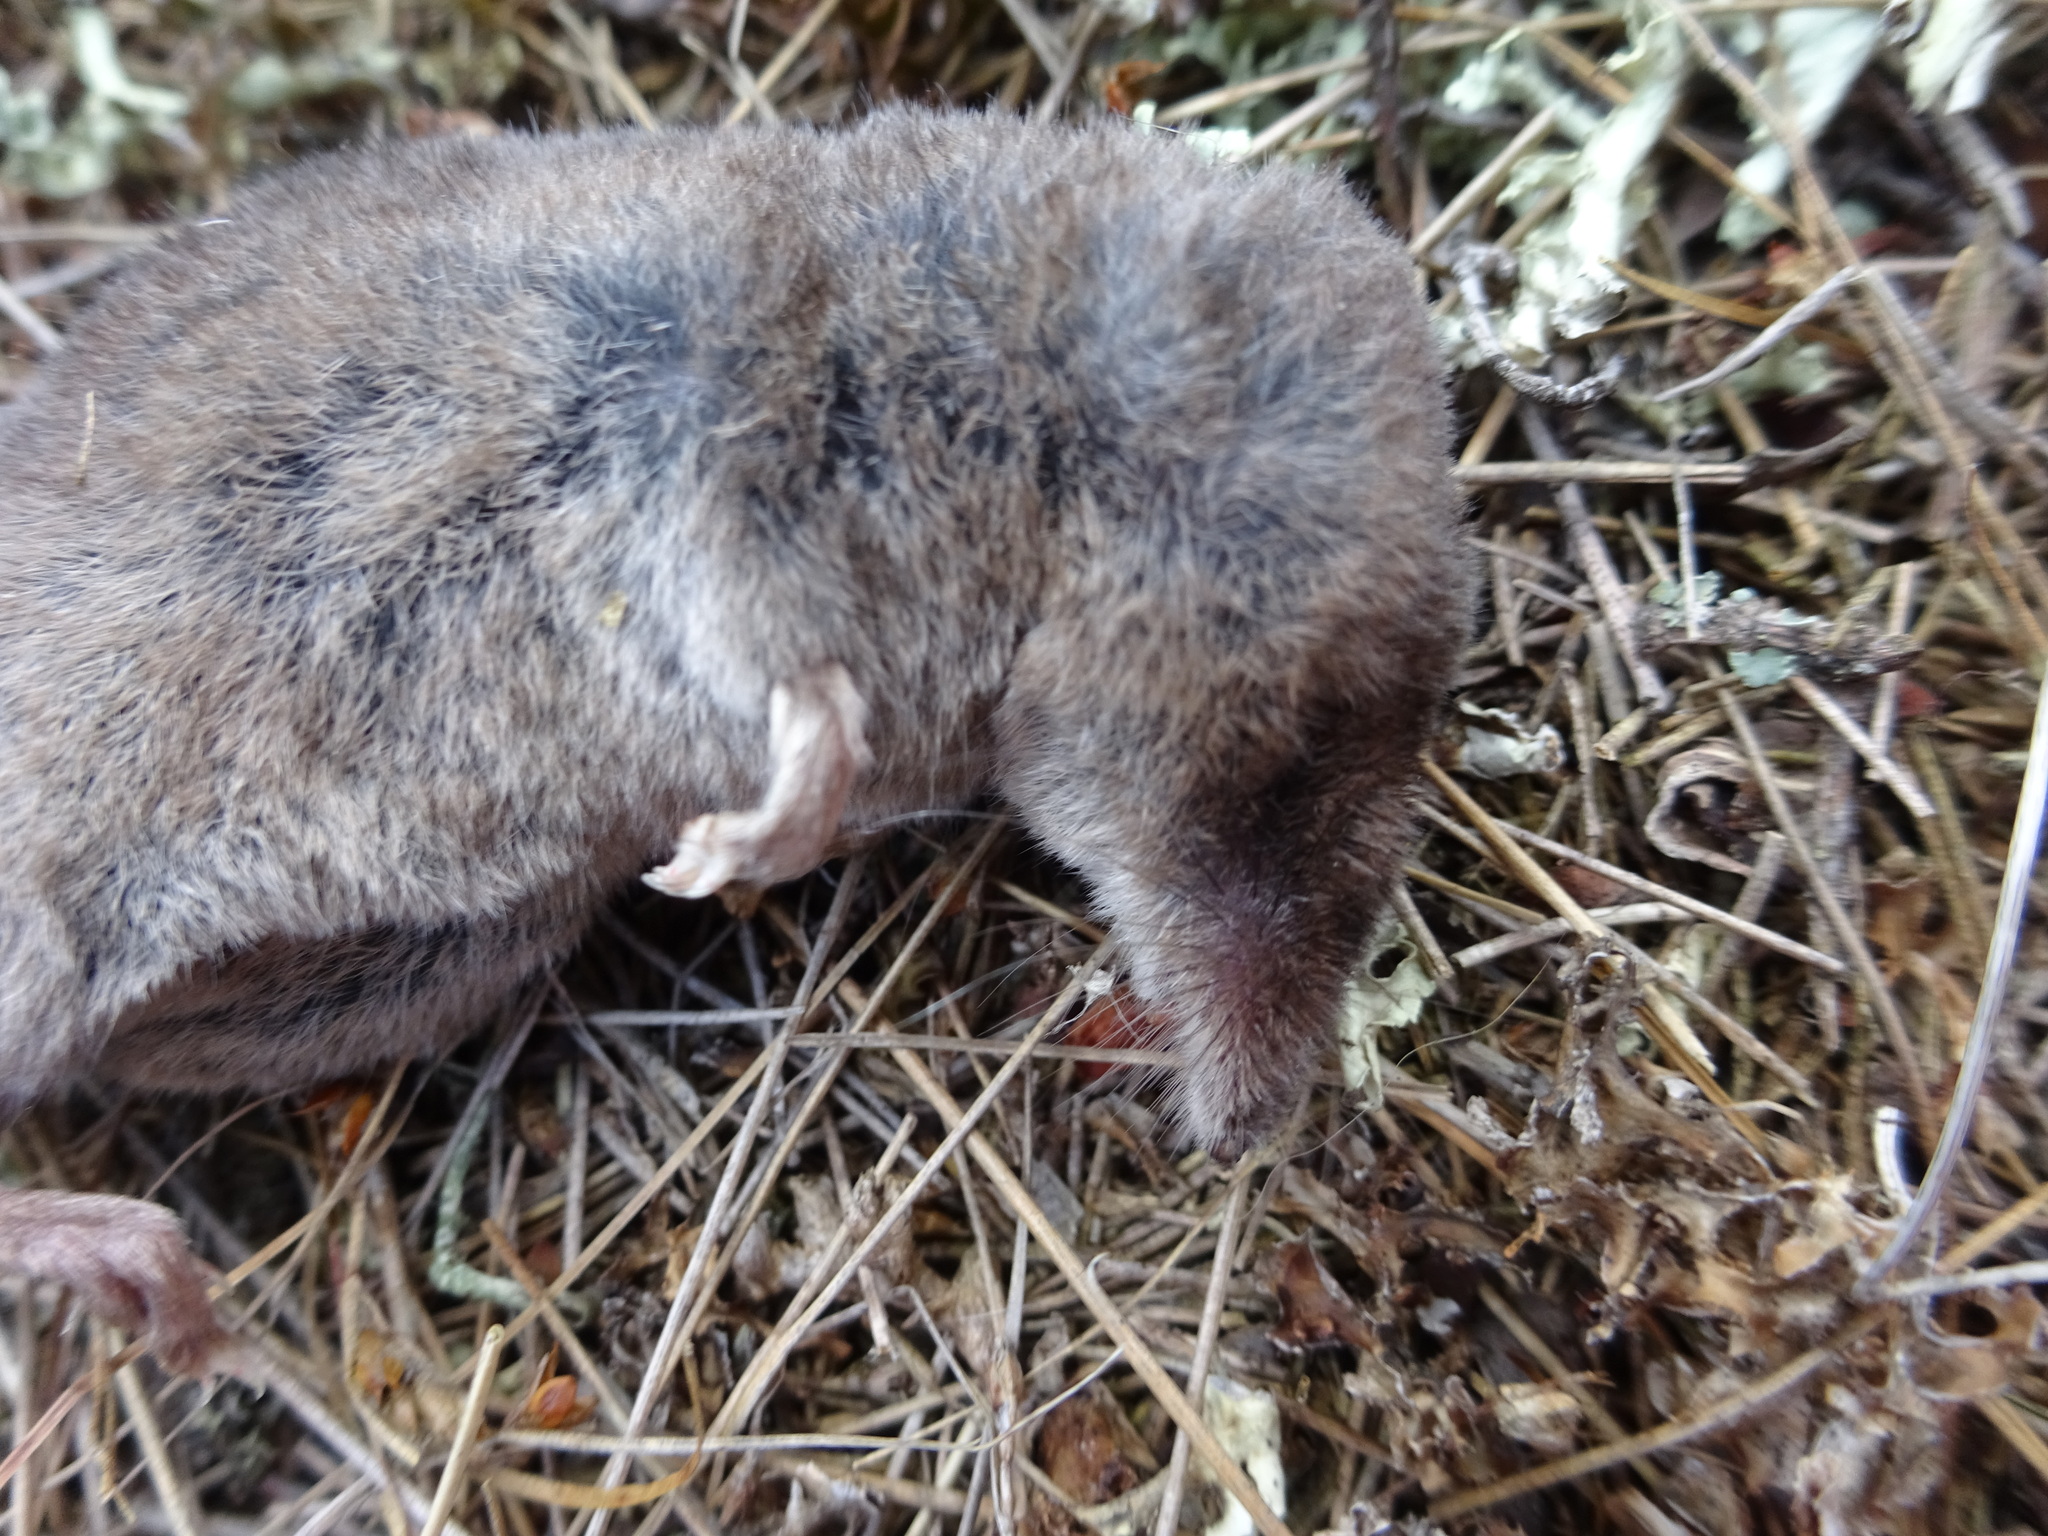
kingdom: Animalia
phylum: Chordata
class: Mammalia
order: Soricomorpha
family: Soricidae
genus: Sorex
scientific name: Sorex isodon
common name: Taiga shrew
